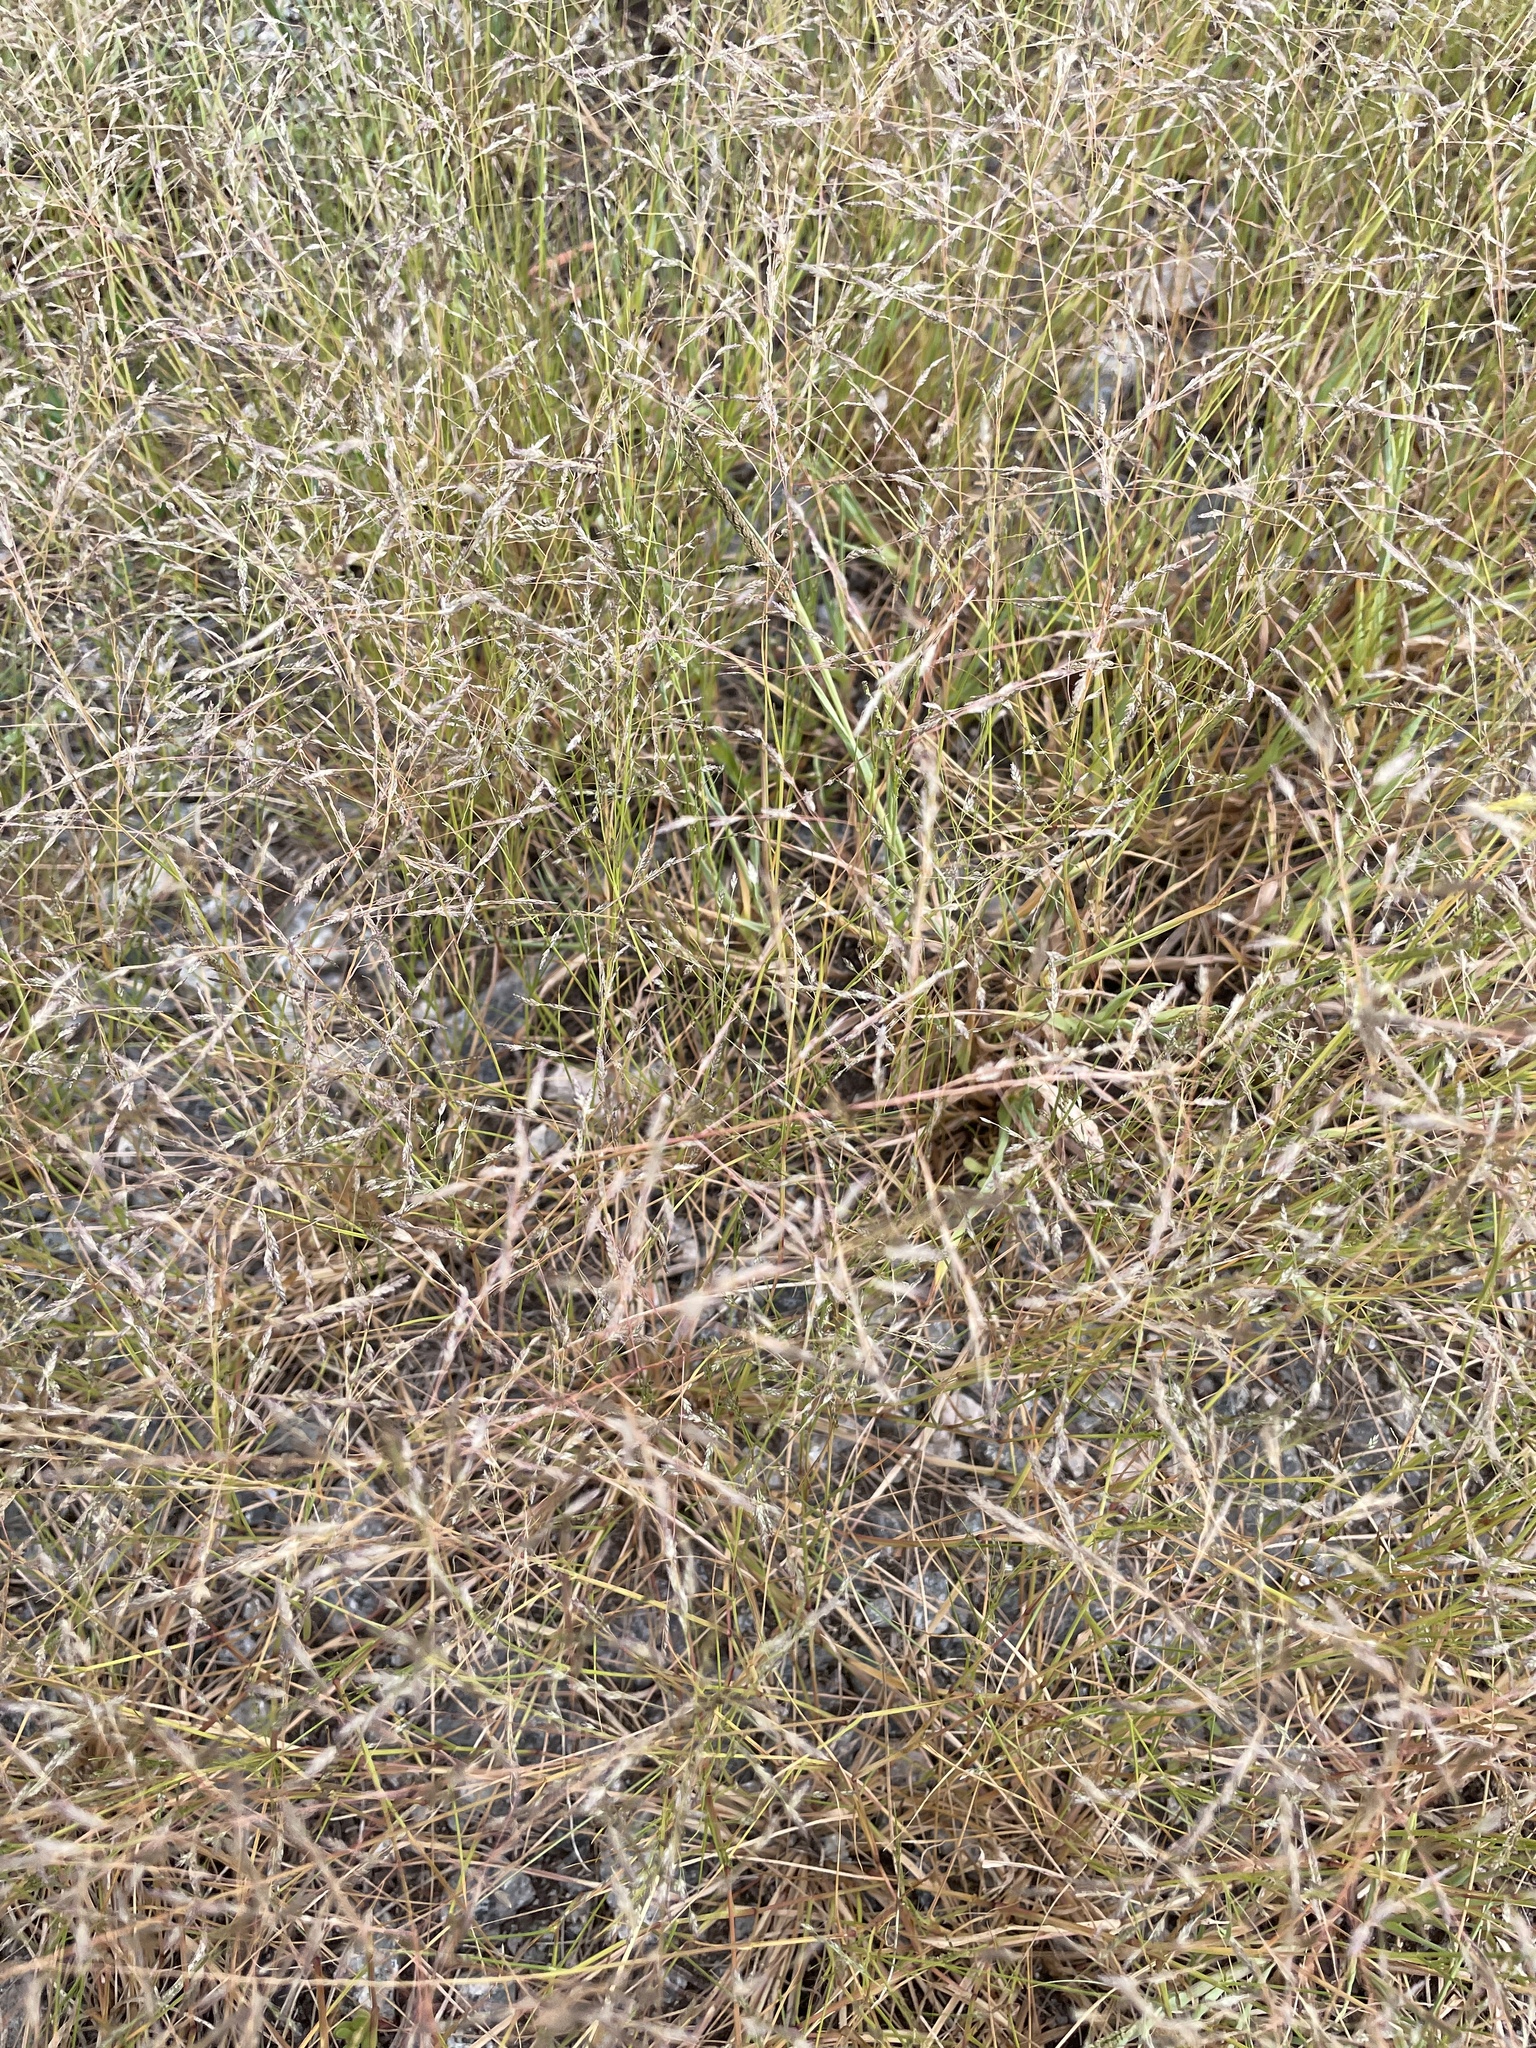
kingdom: Plantae
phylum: Tracheophyta
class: Liliopsida
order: Poales
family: Poaceae
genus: Eragrostis
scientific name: Eragrostis pectinacea
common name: Tufted lovegrass
